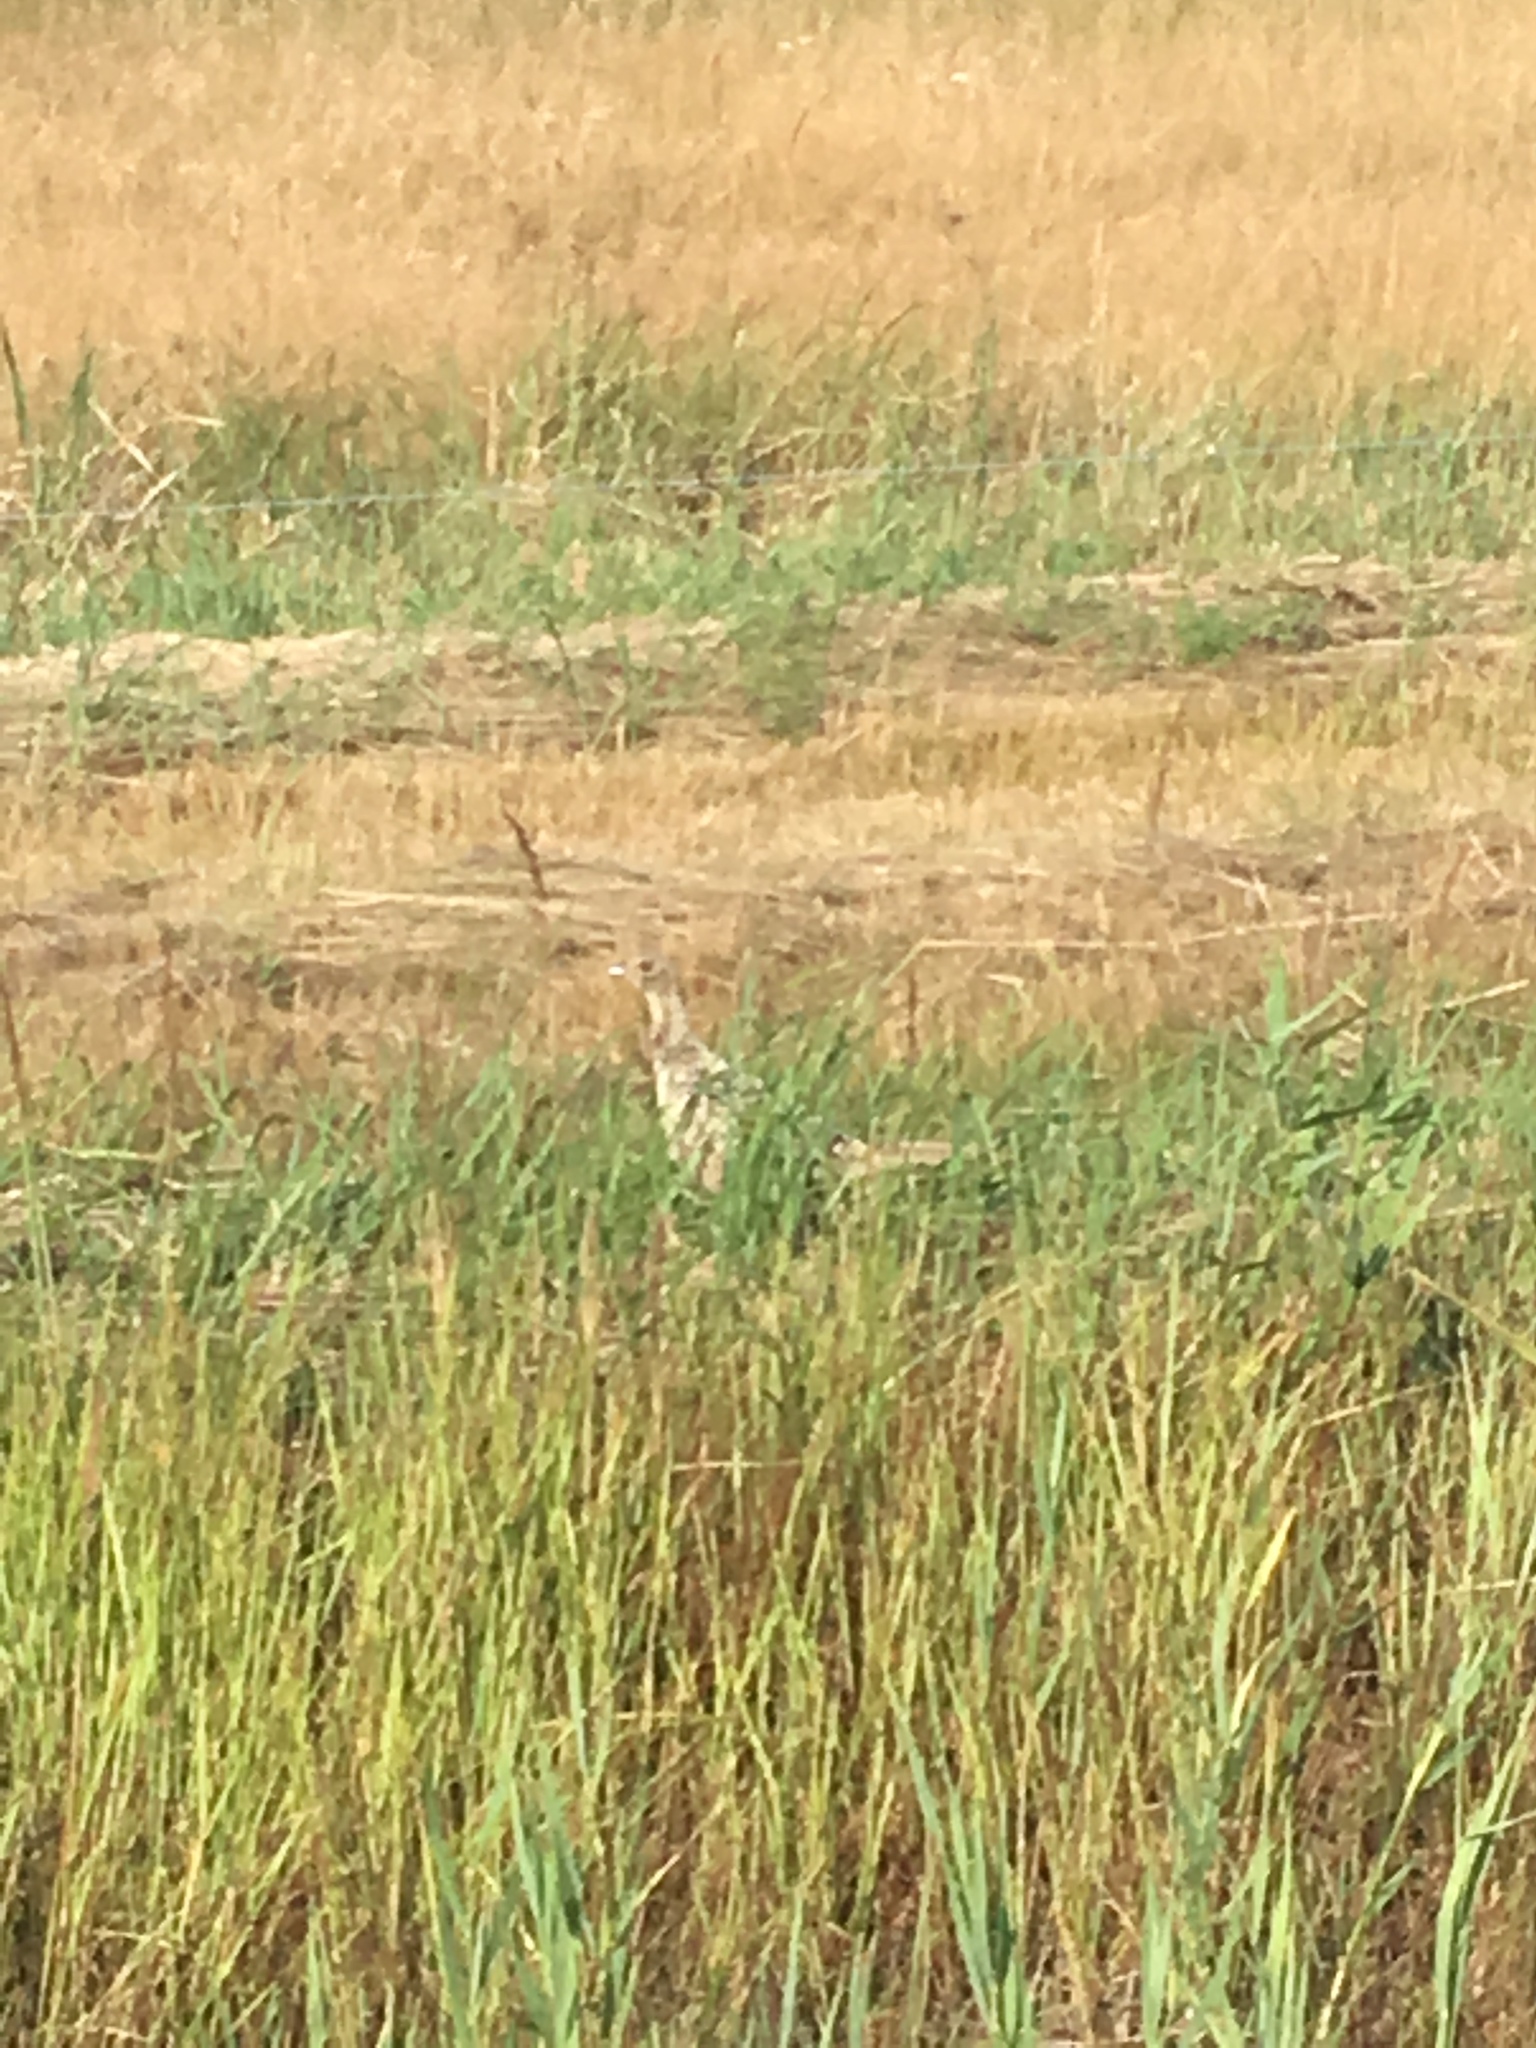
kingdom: Animalia
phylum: Chordata
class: Aves
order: Galliformes
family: Phasianidae
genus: Perdix
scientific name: Perdix perdix
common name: Grey partridge
